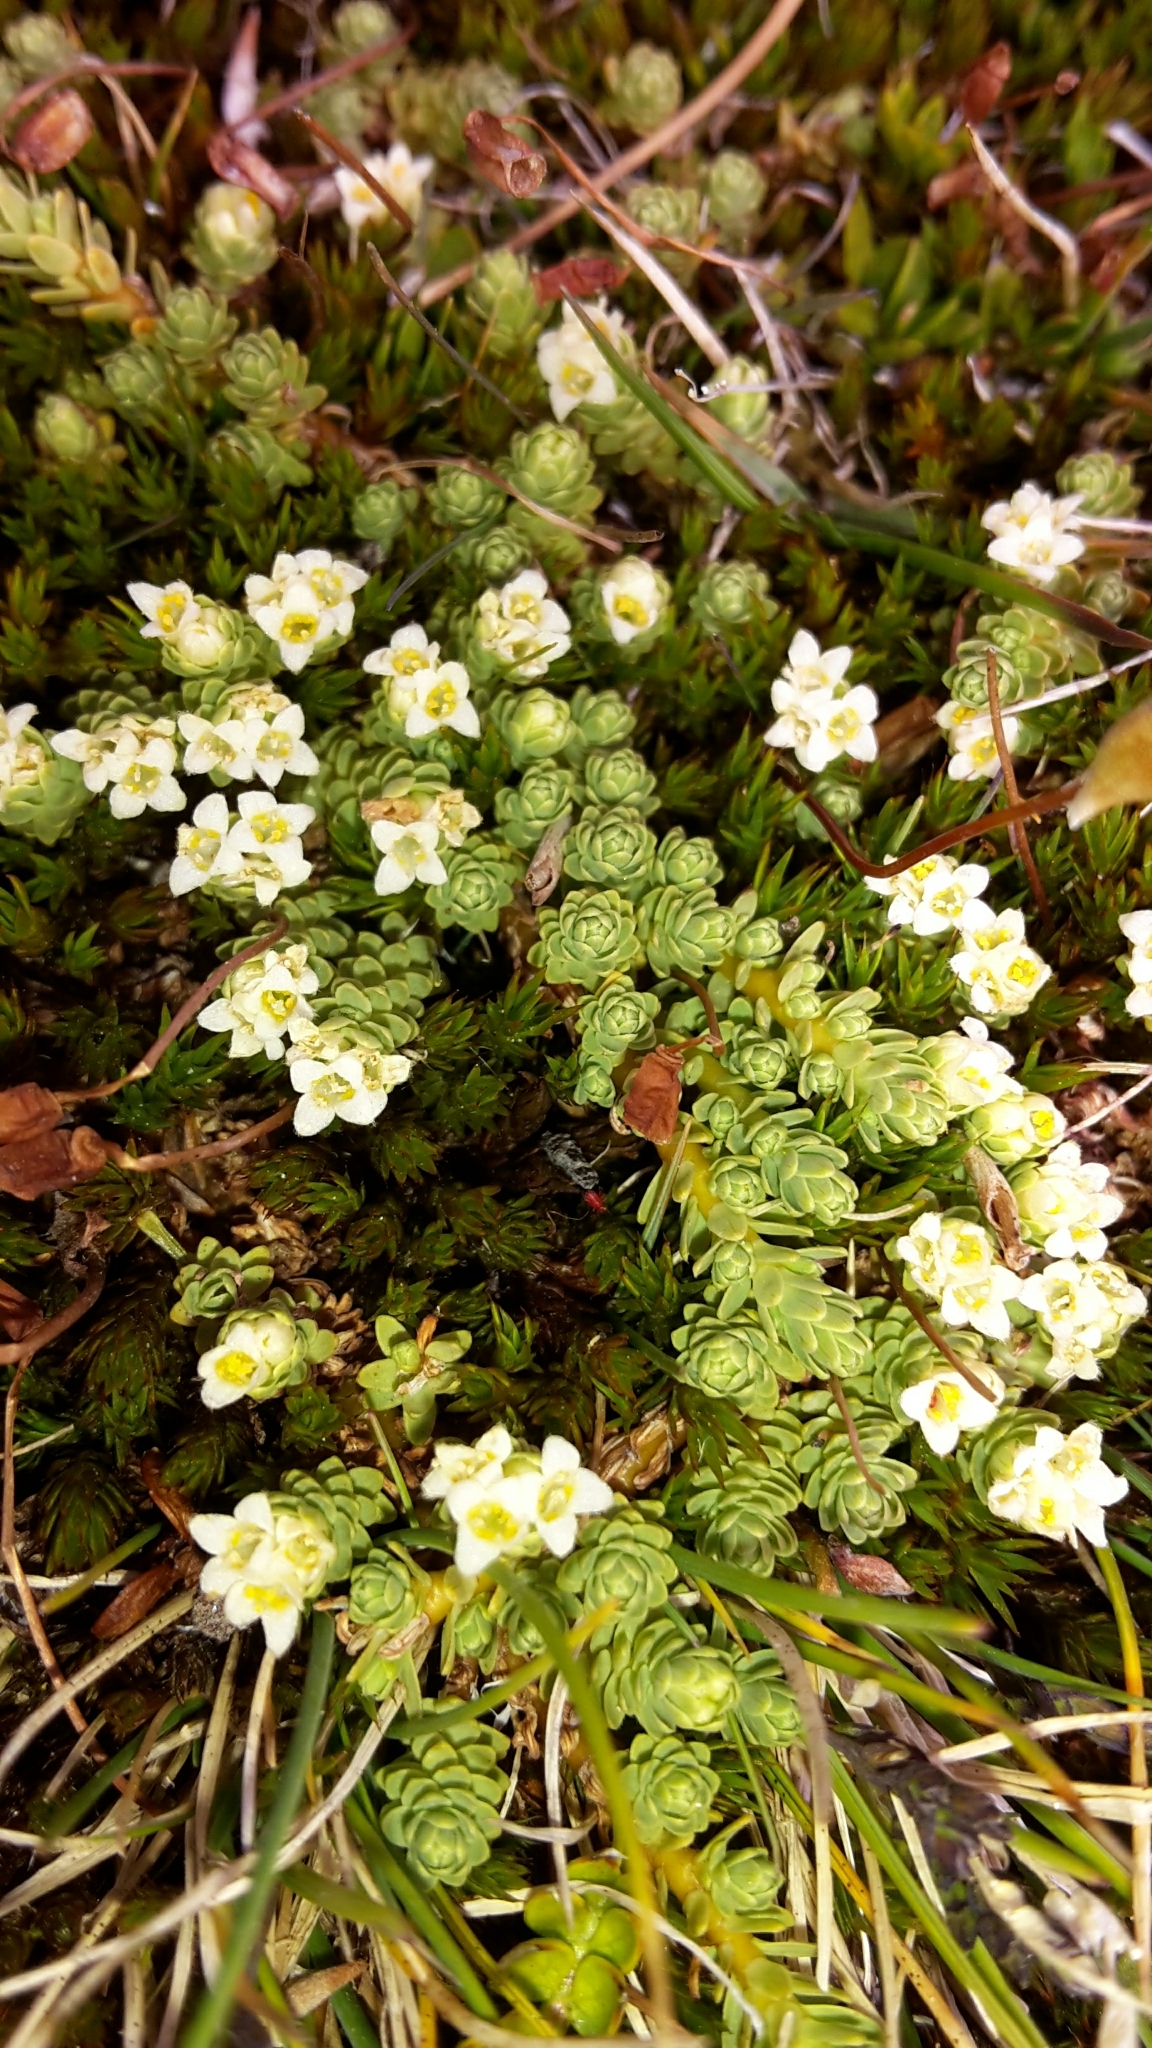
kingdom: Plantae
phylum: Tracheophyta
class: Magnoliopsida
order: Malvales
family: Thymelaeaceae
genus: Kelleria
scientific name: Kelleria paludosa
